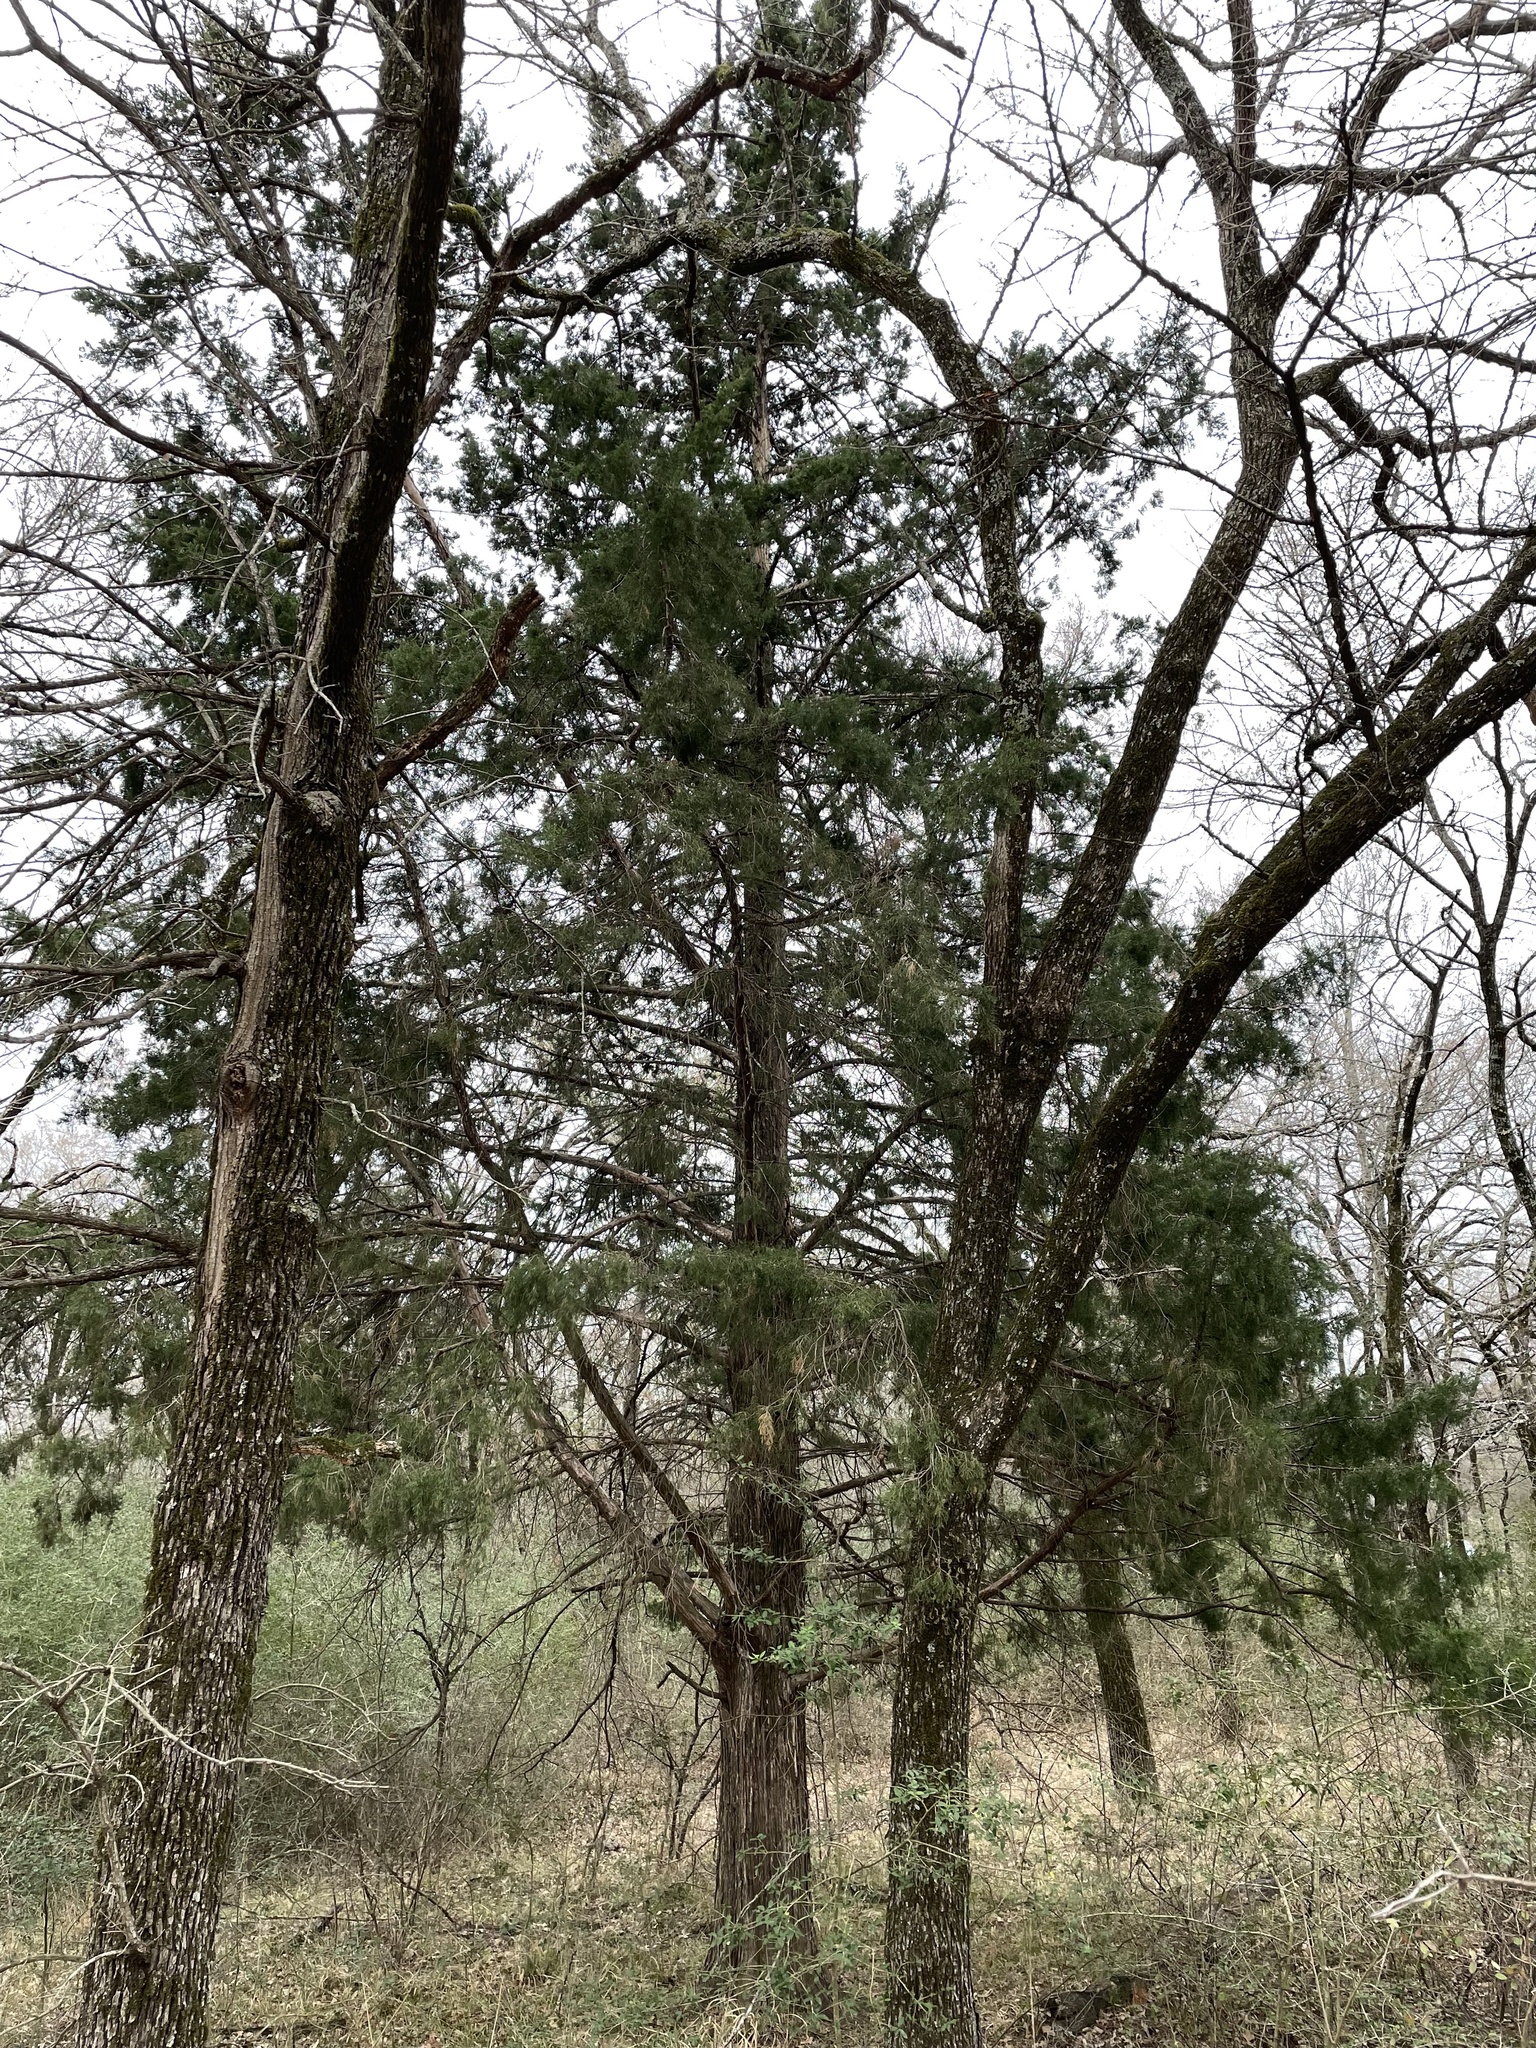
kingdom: Plantae
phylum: Tracheophyta
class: Pinopsida
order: Pinales
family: Cupressaceae
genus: Juniperus
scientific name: Juniperus virginiana
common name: Red juniper
